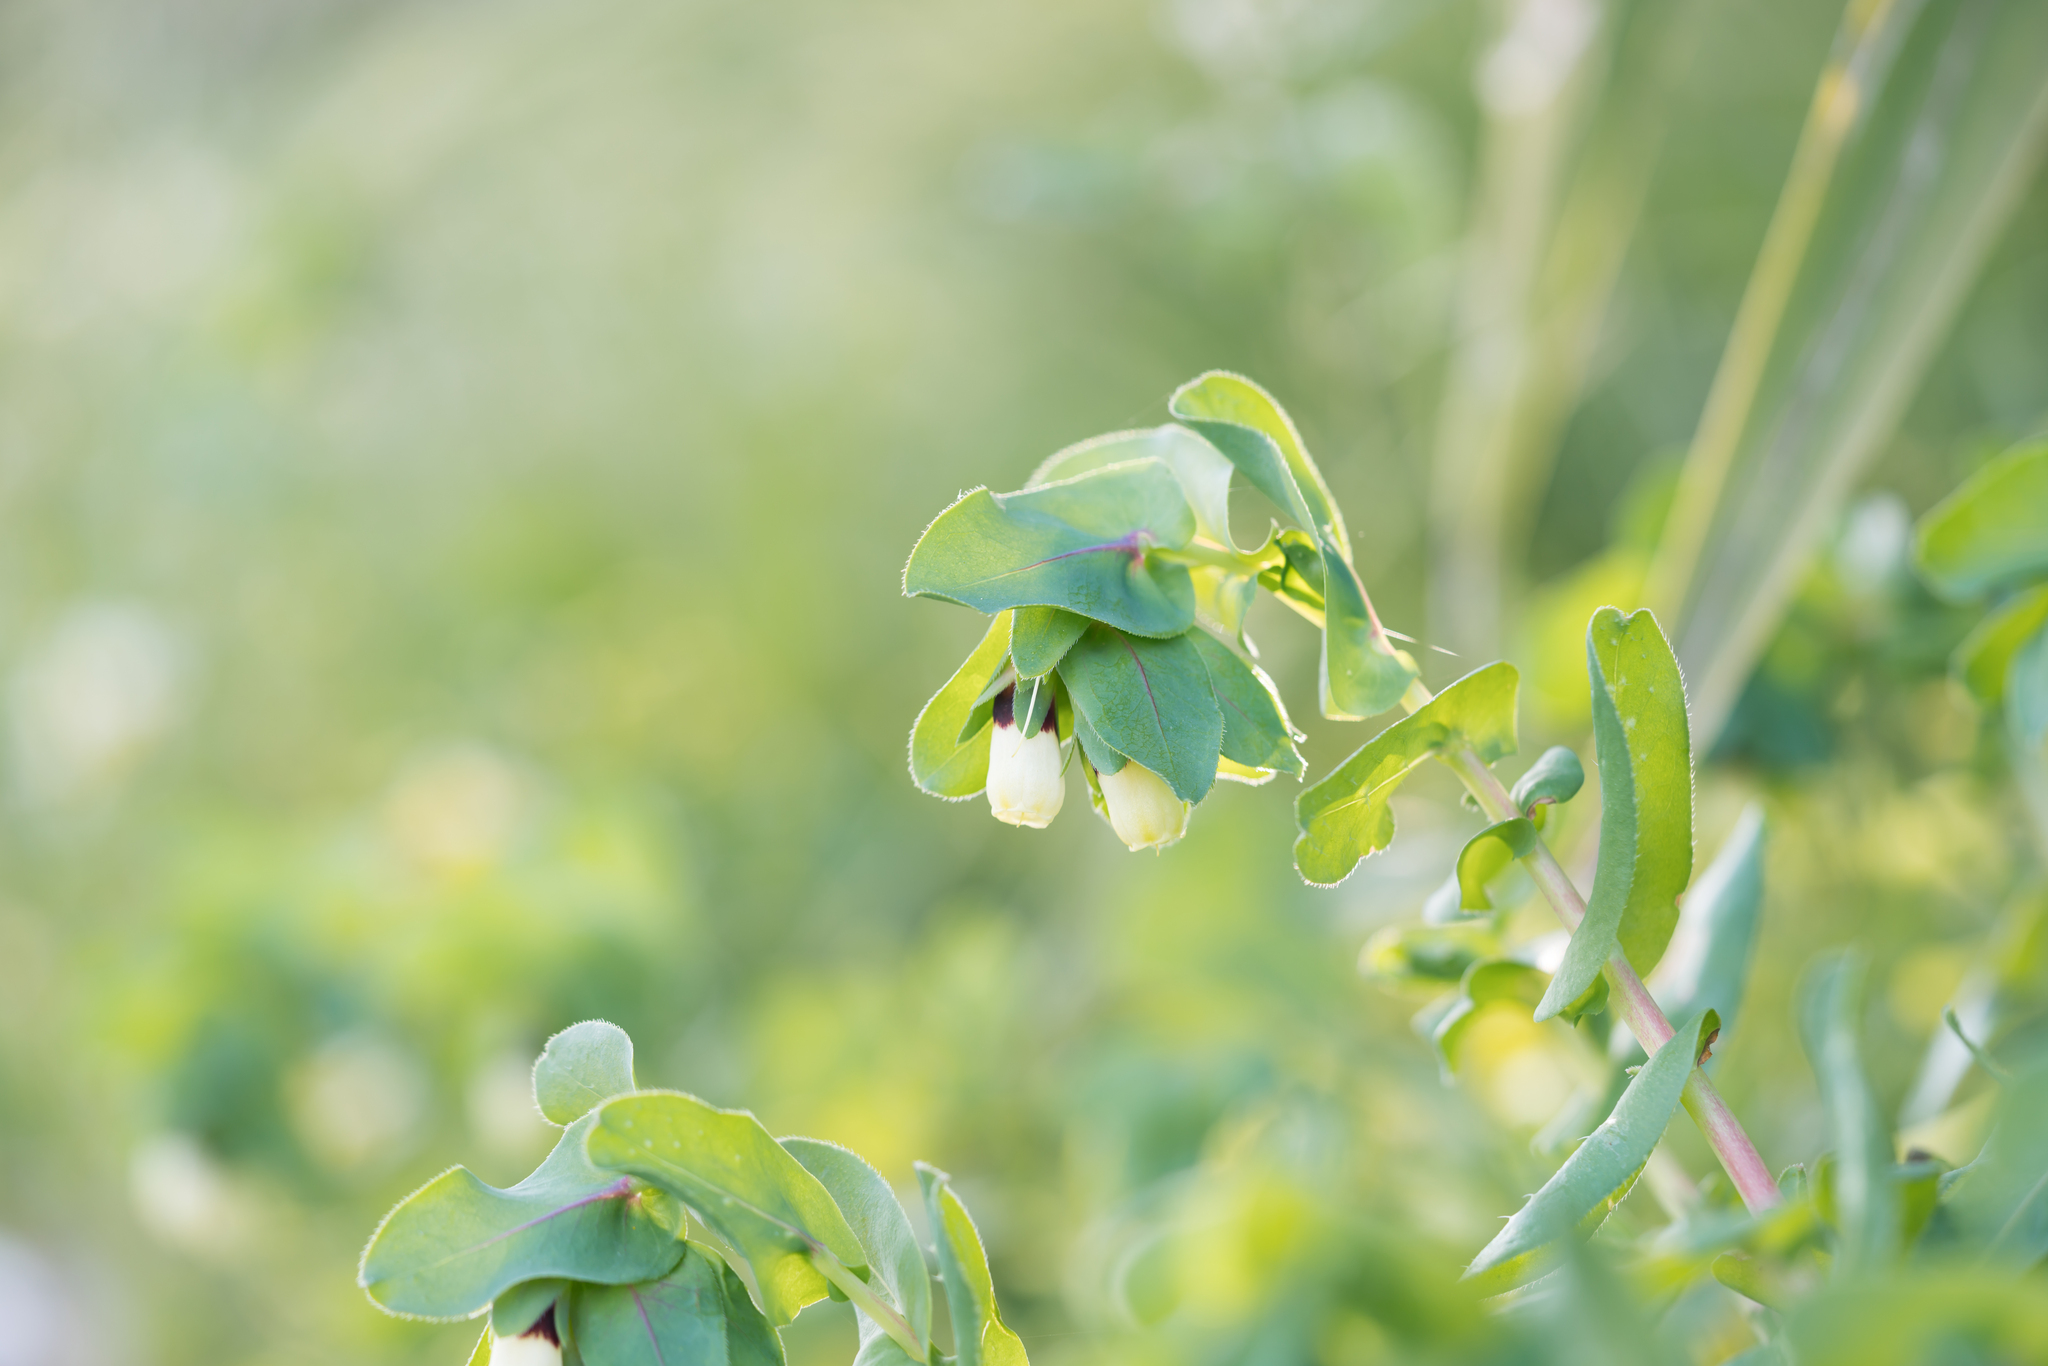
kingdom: Plantae
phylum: Tracheophyta
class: Magnoliopsida
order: Boraginales
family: Boraginaceae
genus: Cerinthe
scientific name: Cerinthe major
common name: Greater honeywort
